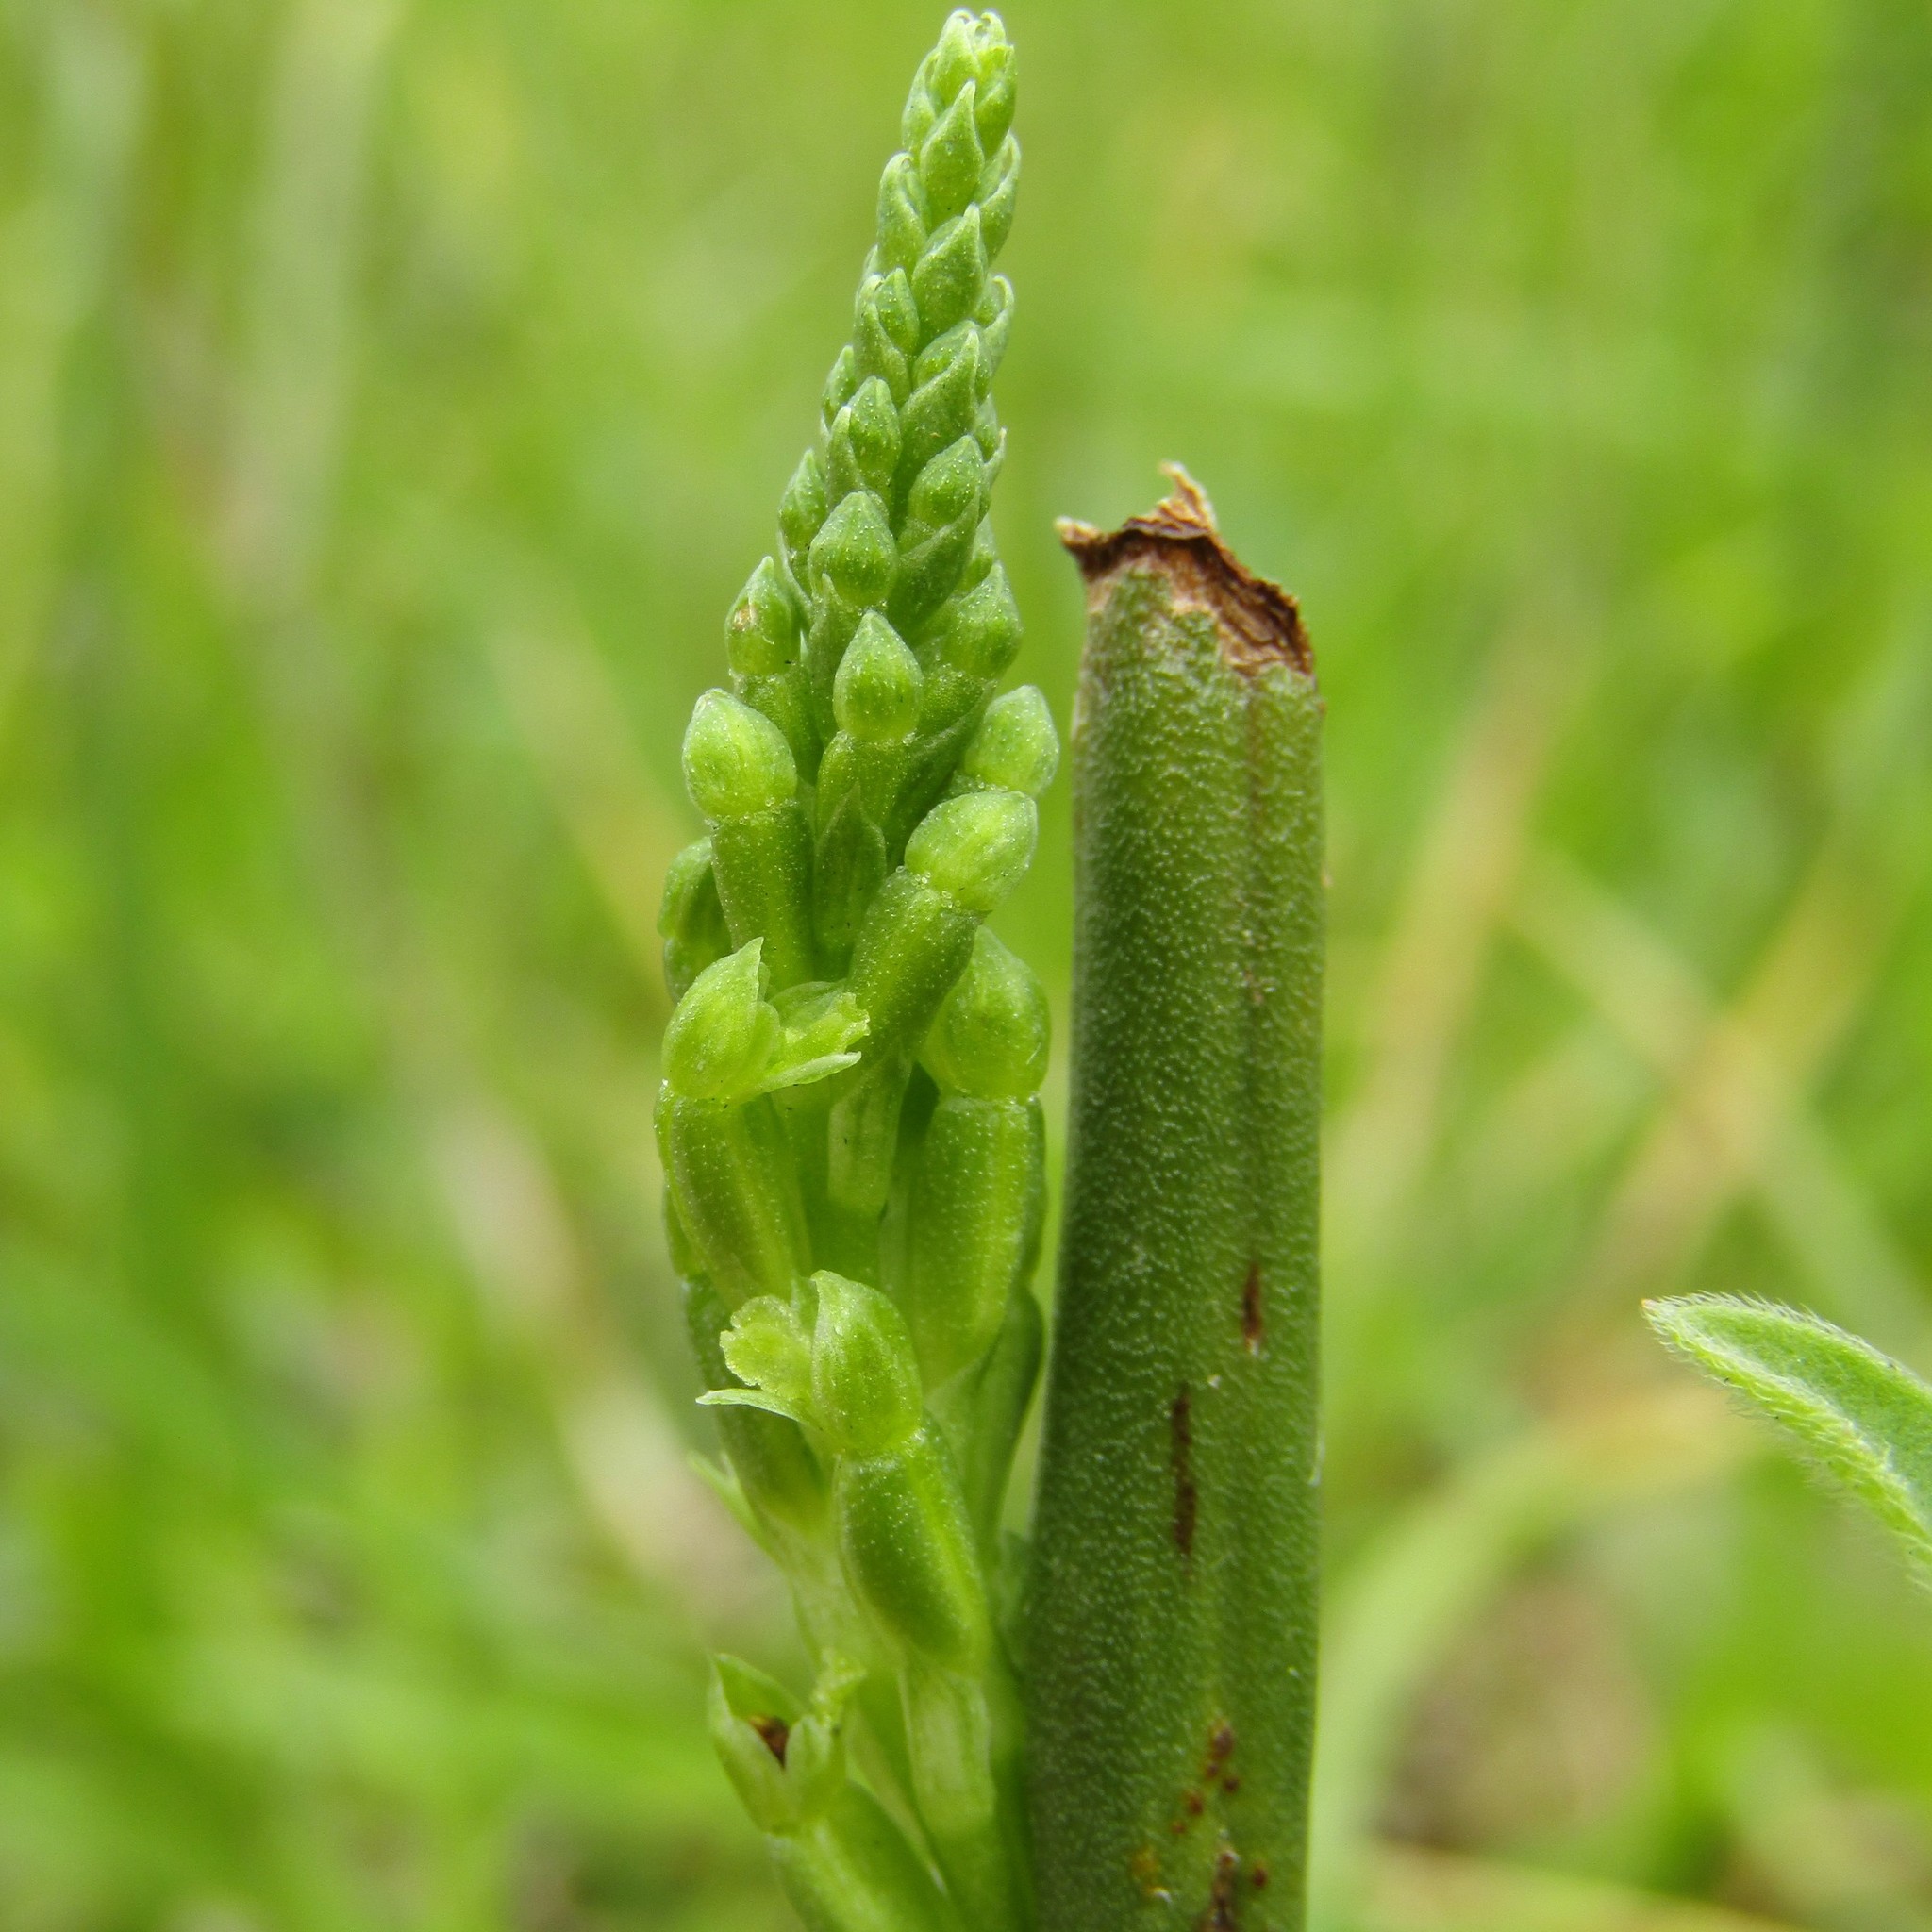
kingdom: Plantae
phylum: Tracheophyta
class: Liliopsida
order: Asparagales
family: Orchidaceae
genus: Microtis
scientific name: Microtis unifolia
